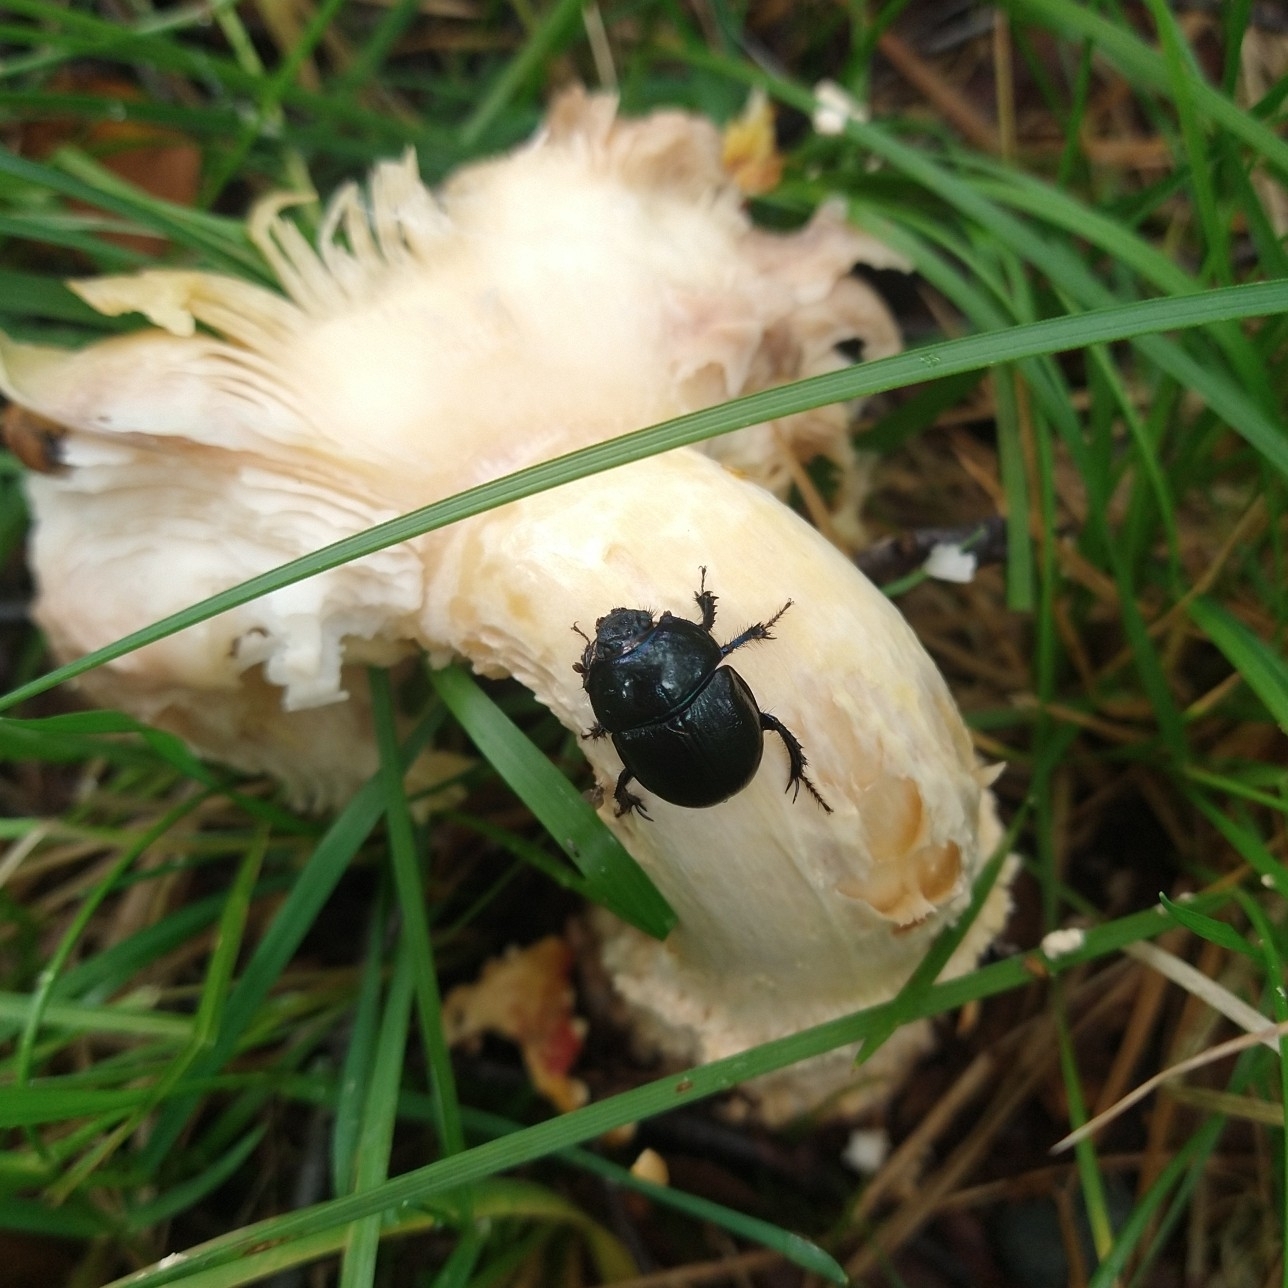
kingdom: Animalia
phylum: Arthropoda
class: Insecta
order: Coleoptera
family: Geotrupidae
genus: Anoplotrupes
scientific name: Anoplotrupes stercorosus
